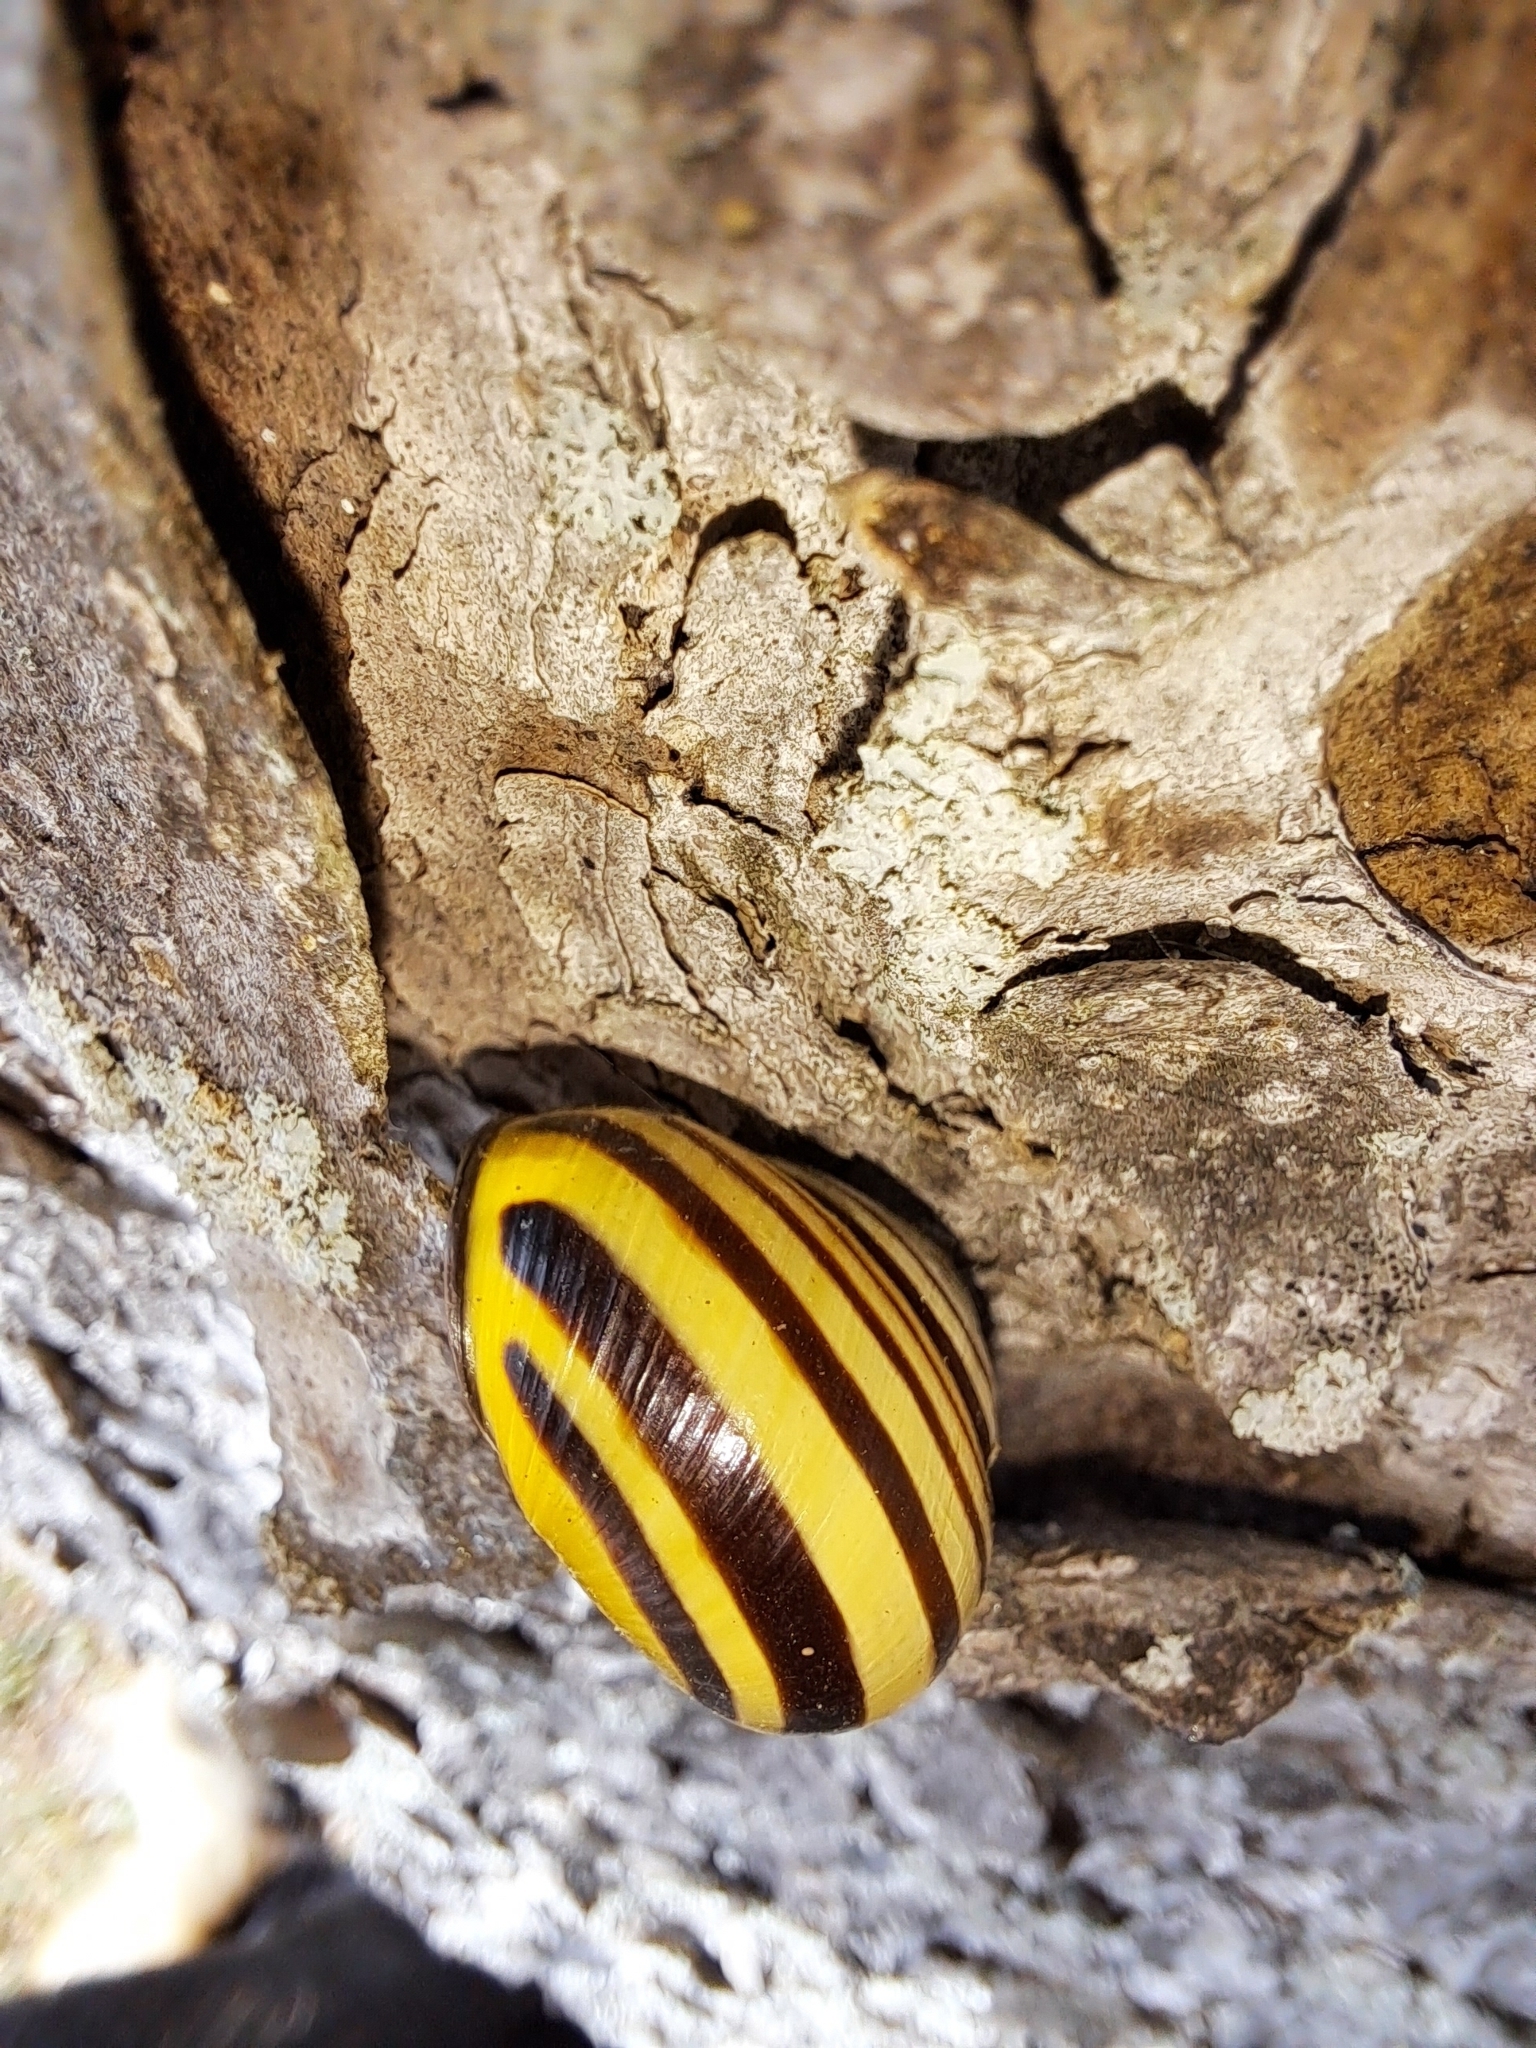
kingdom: Animalia
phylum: Mollusca
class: Gastropoda
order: Stylommatophora
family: Helicidae
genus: Cepaea
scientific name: Cepaea nemoralis
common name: Grovesnail
